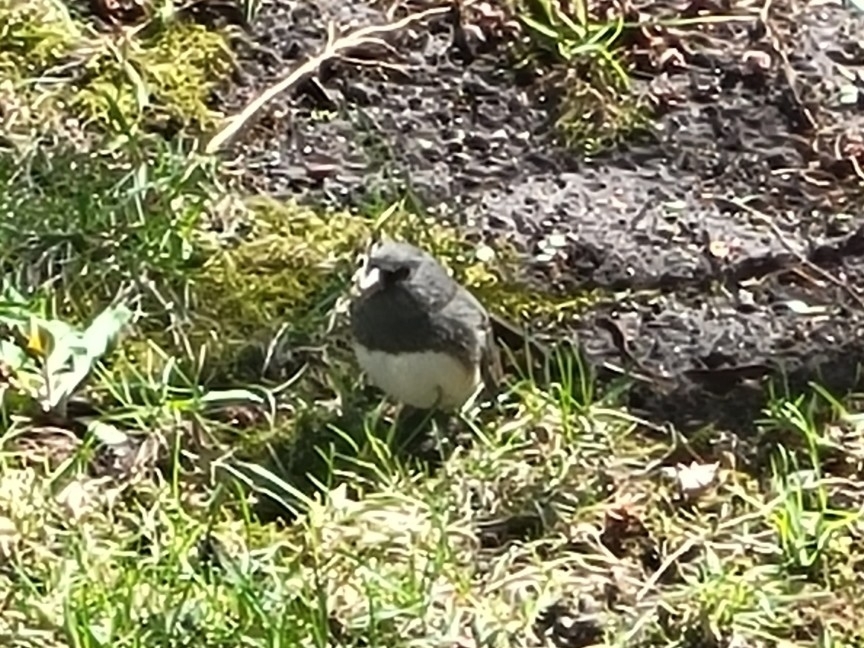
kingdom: Animalia
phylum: Chordata
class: Aves
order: Passeriformes
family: Passerellidae
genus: Junco
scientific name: Junco hyemalis
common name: Dark-eyed junco
